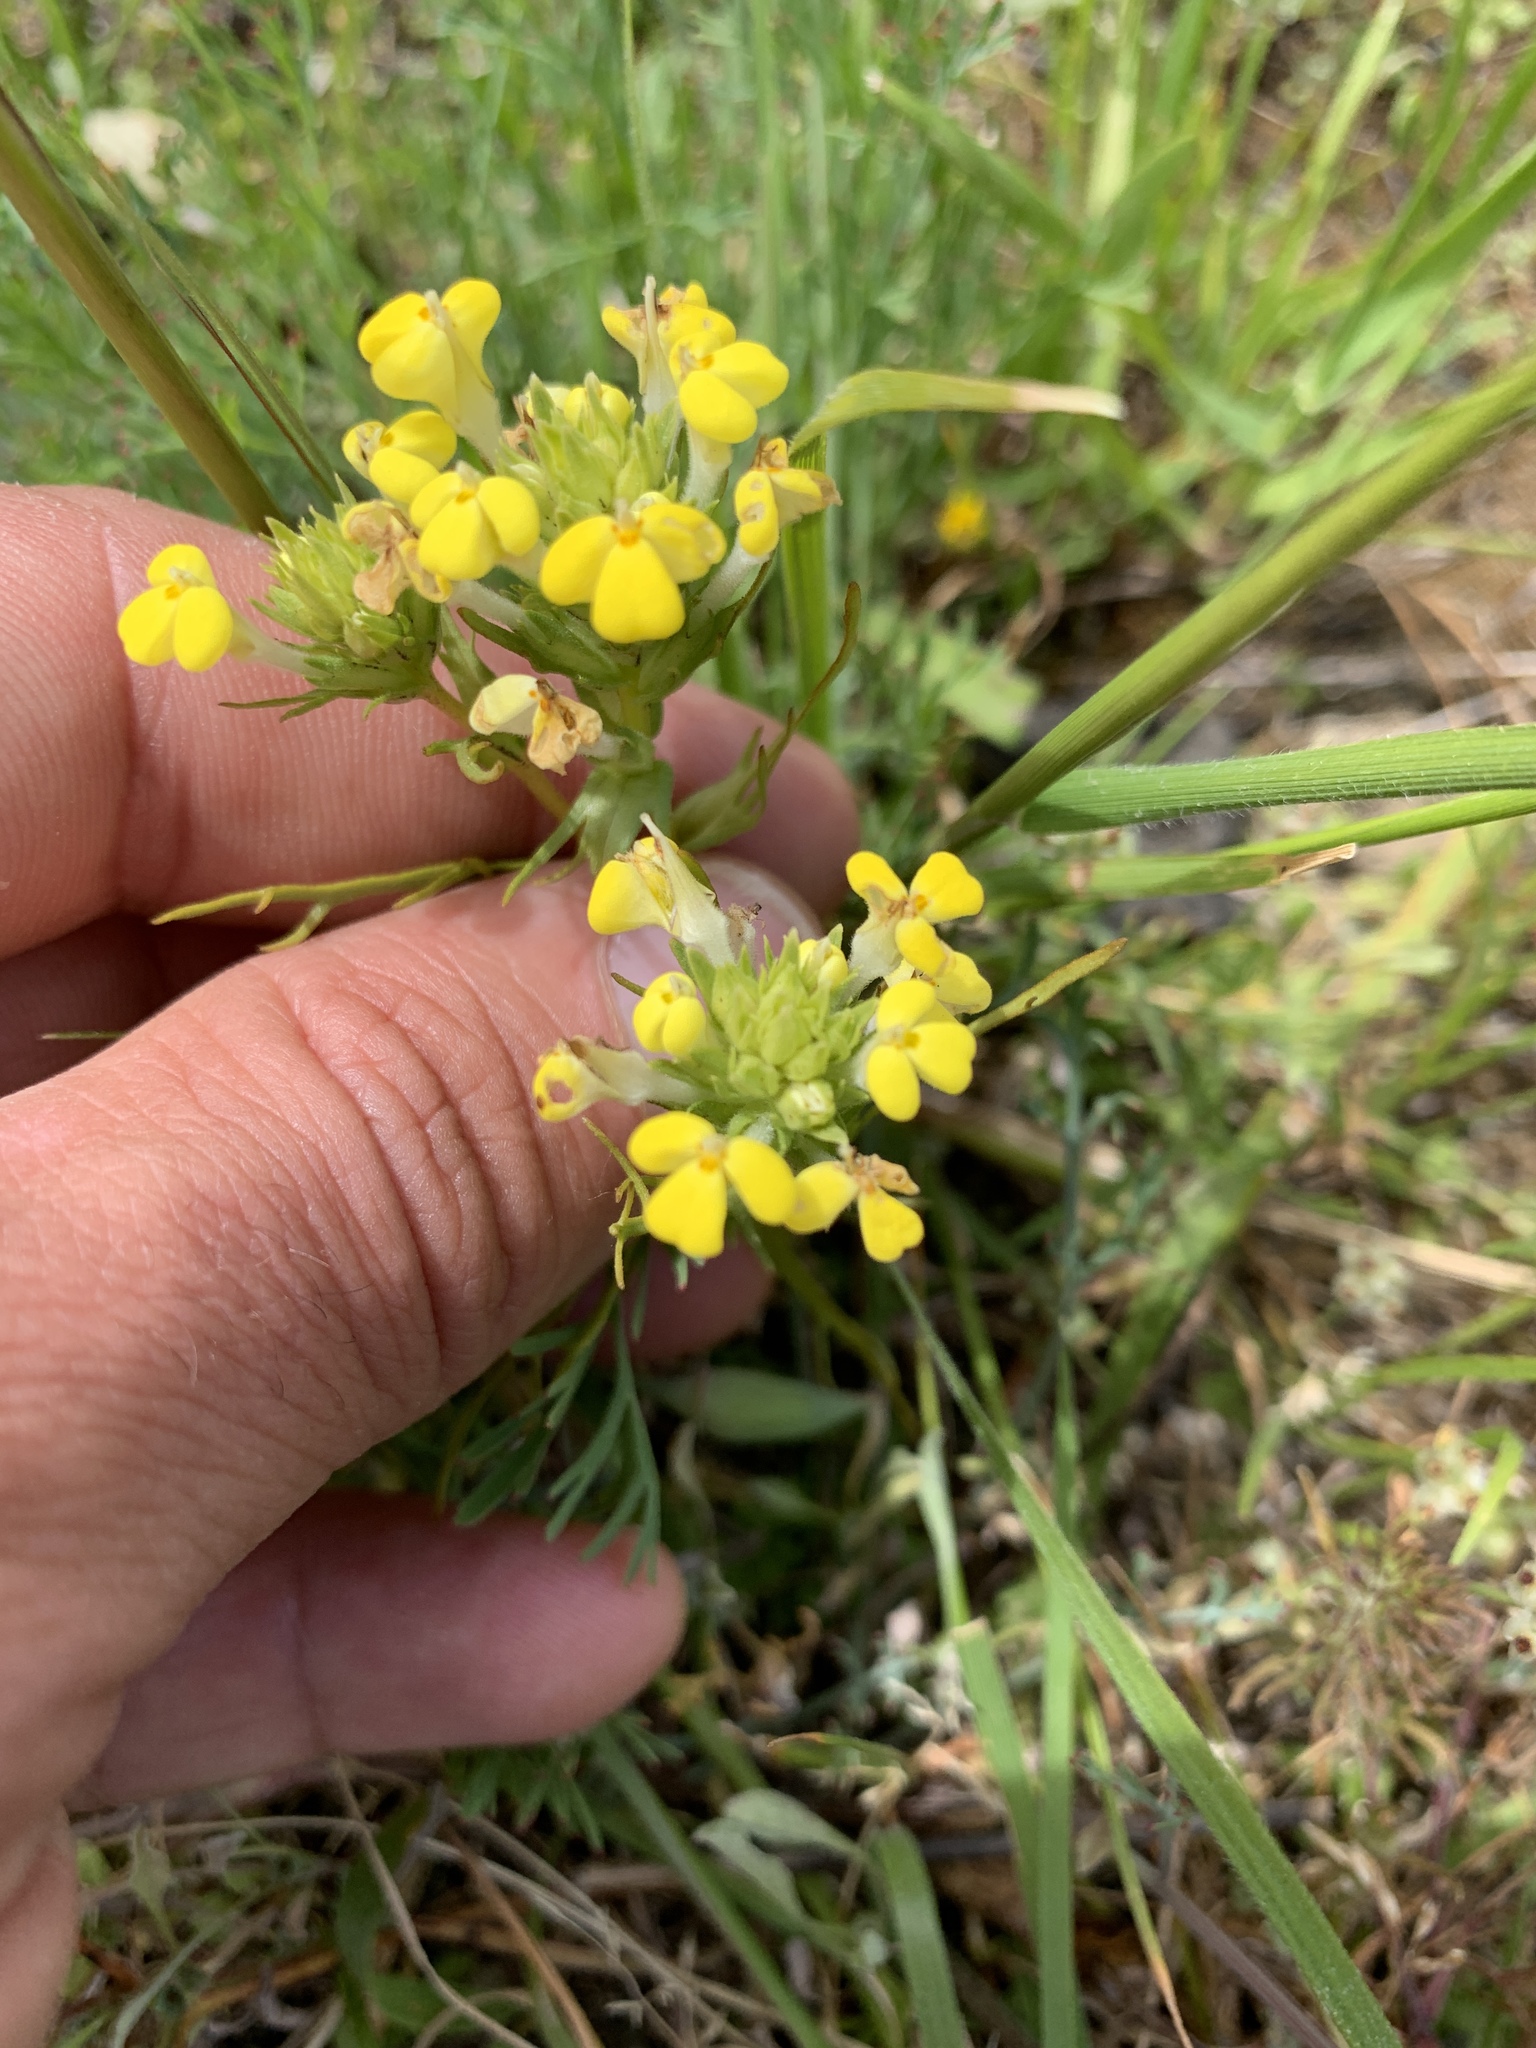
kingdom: Plantae
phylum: Tracheophyta
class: Magnoliopsida
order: Lamiales
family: Orobanchaceae
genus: Castilleja
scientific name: Castilleja rubicundula
